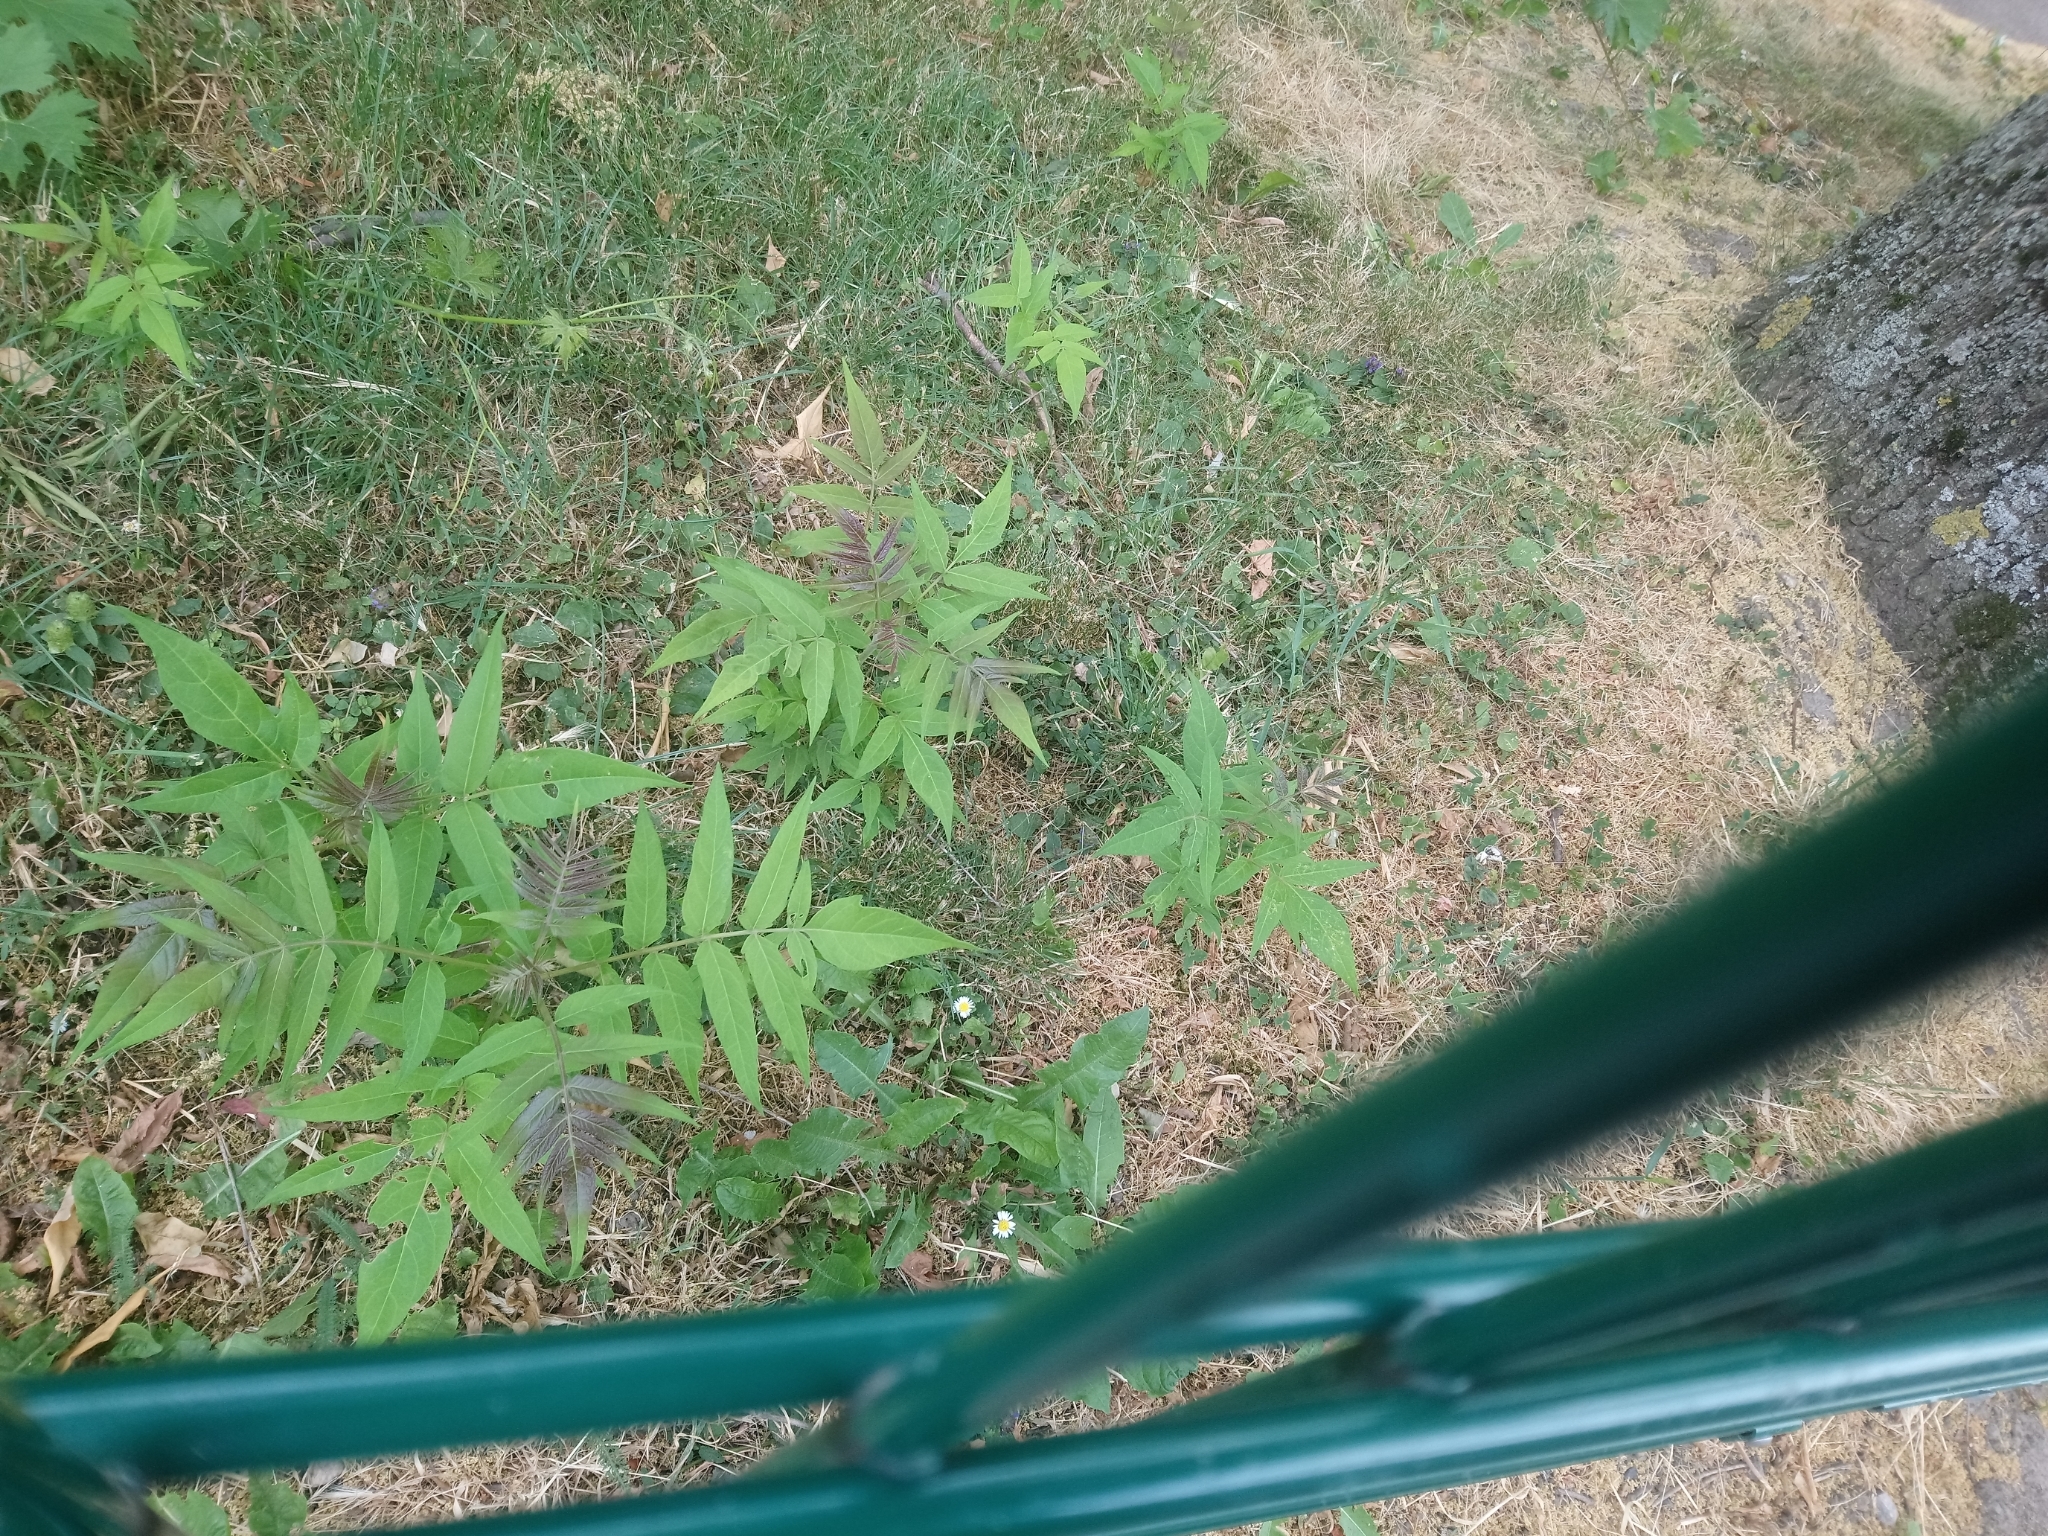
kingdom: Plantae
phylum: Tracheophyta
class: Magnoliopsida
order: Sapindales
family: Simaroubaceae
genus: Ailanthus
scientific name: Ailanthus altissima
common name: Tree-of-heaven
